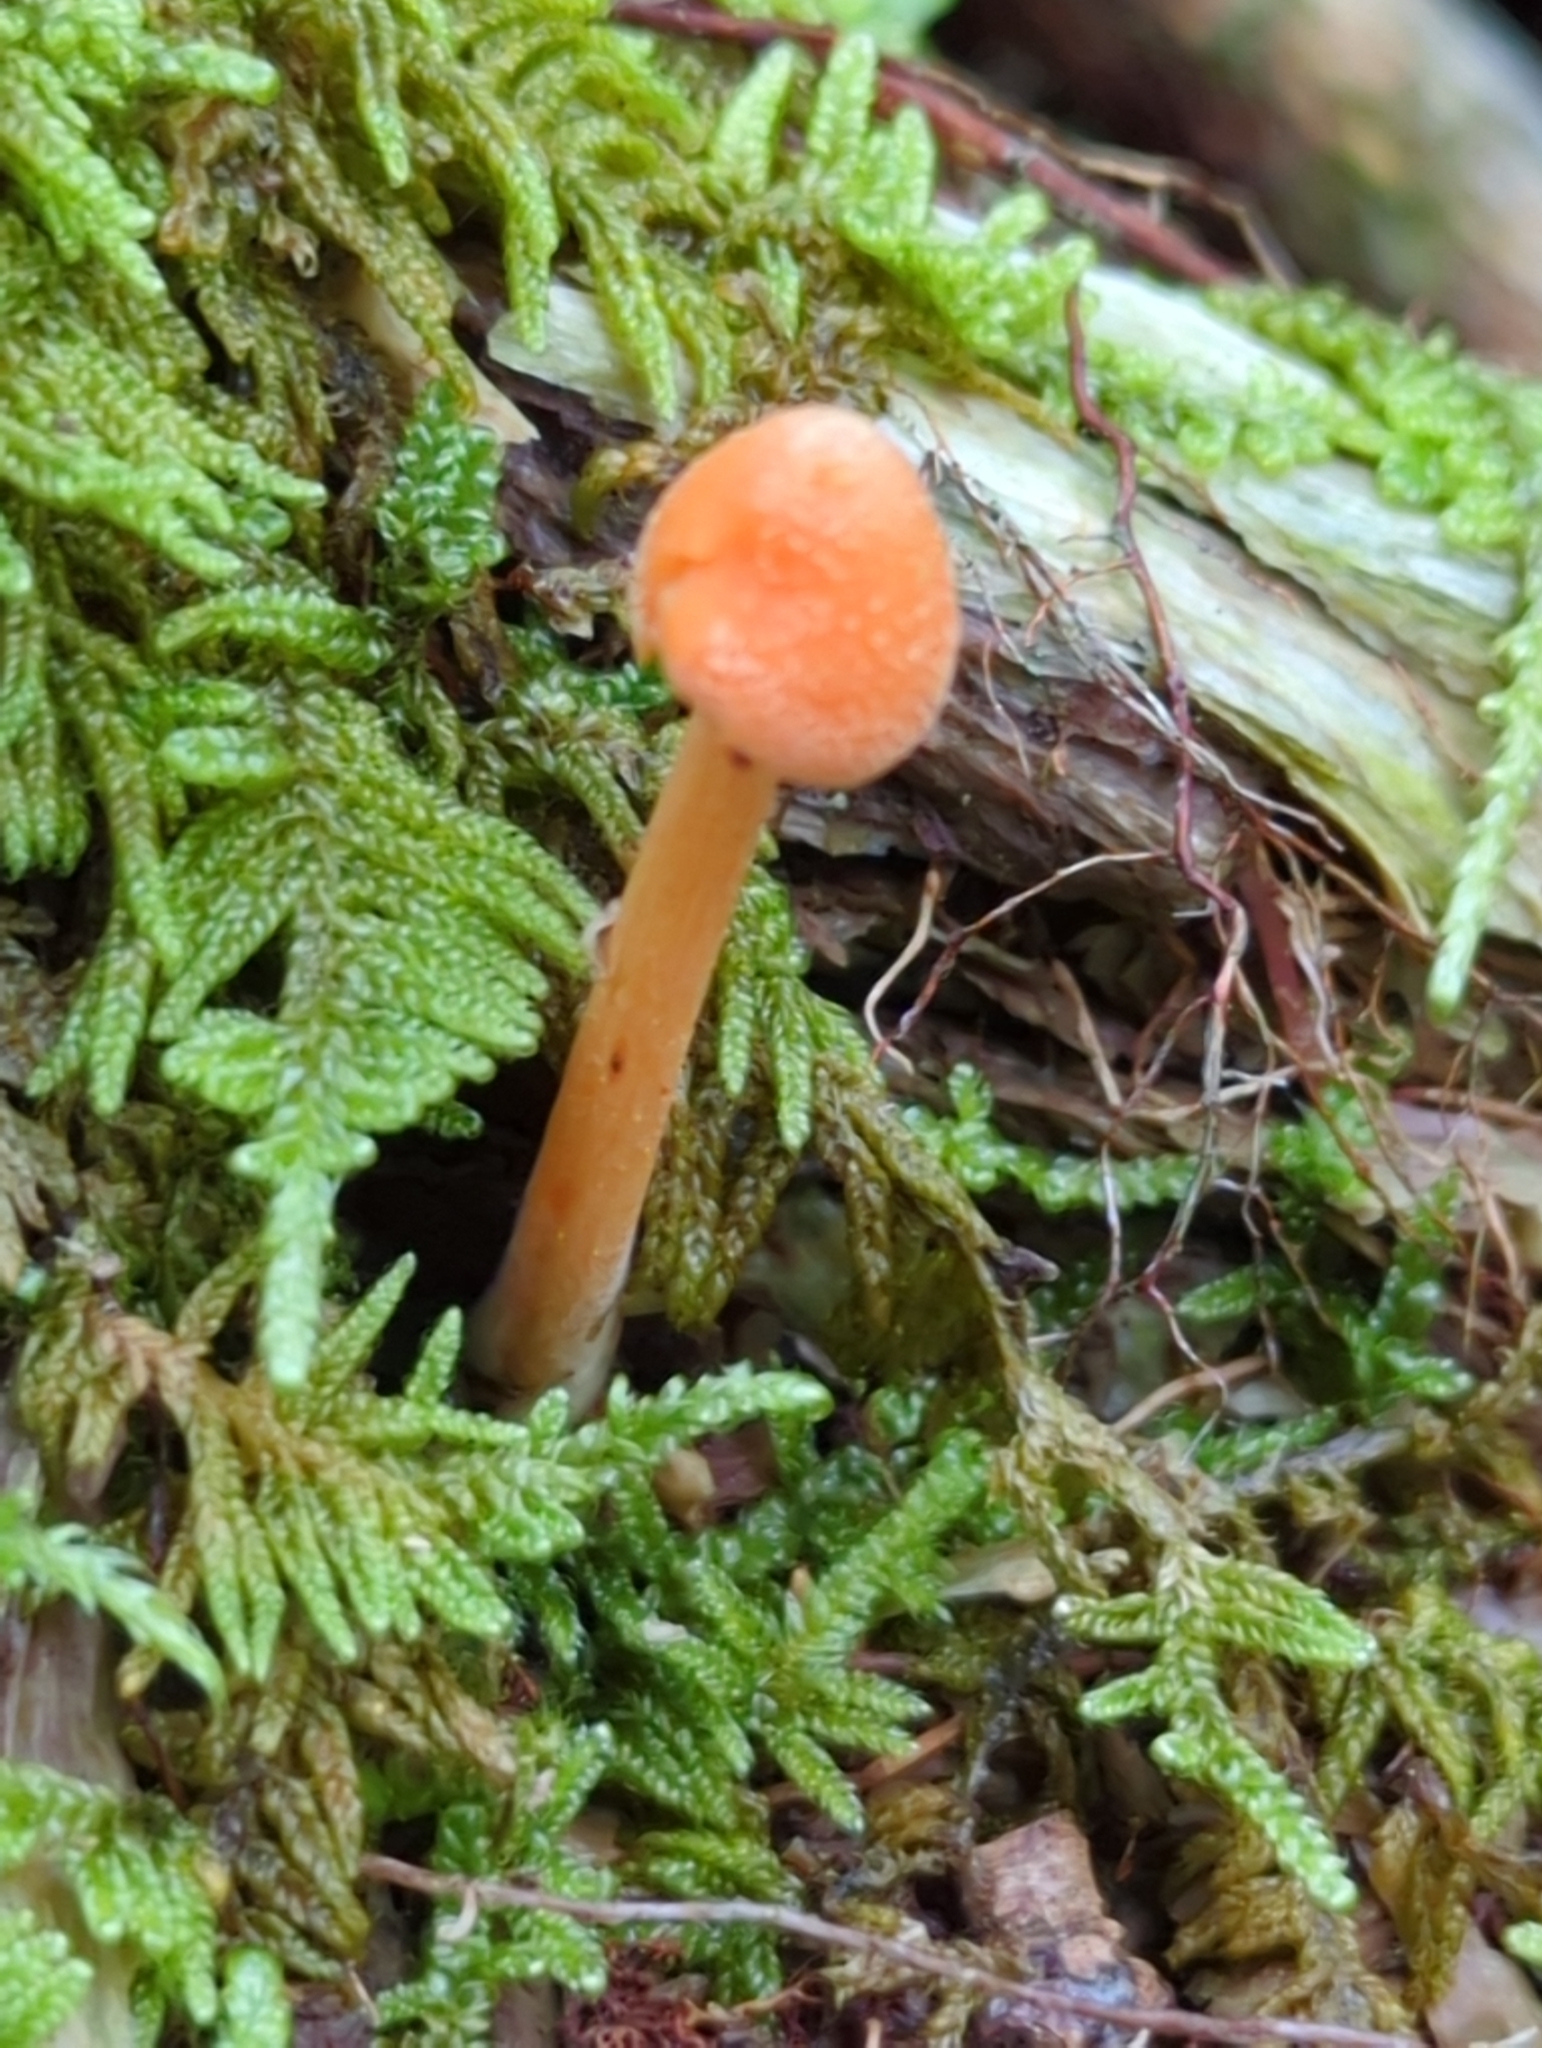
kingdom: Fungi
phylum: Basidiomycota
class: Agaricomycetes
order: Agaricales
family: Entolomataceae
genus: Entoloma
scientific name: Entoloma quadratum
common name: Salmon pinkgill
